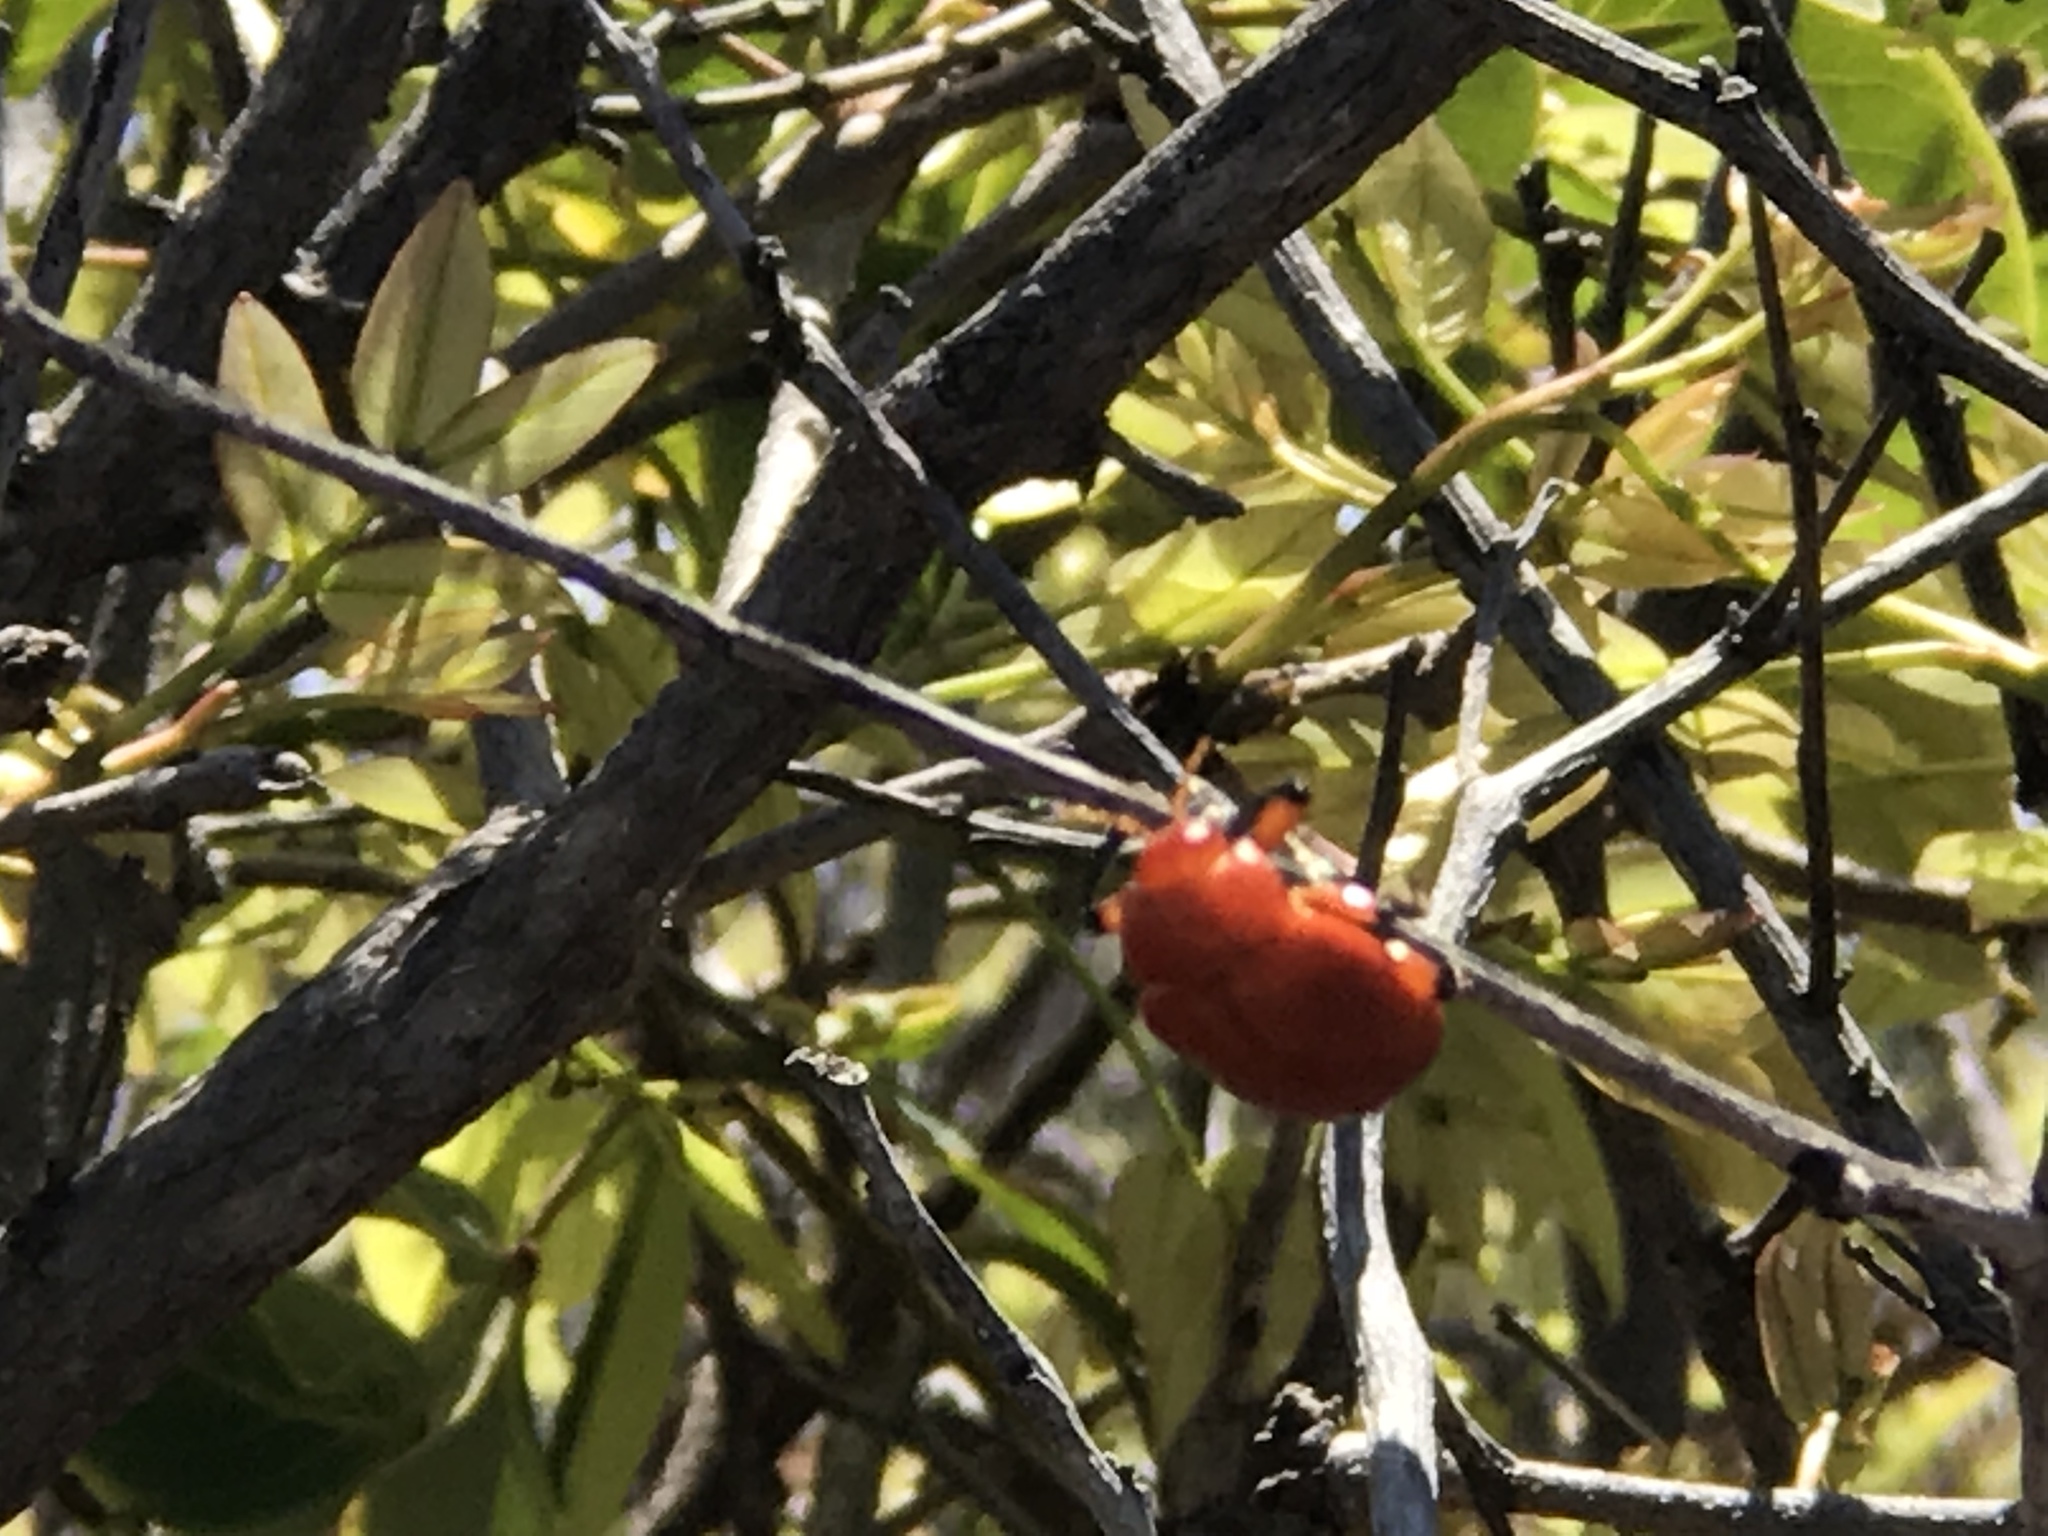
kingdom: Animalia
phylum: Arthropoda
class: Insecta
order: Coleoptera
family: Chrysomelidae
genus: Crimissa
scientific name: Crimissa cruralis
